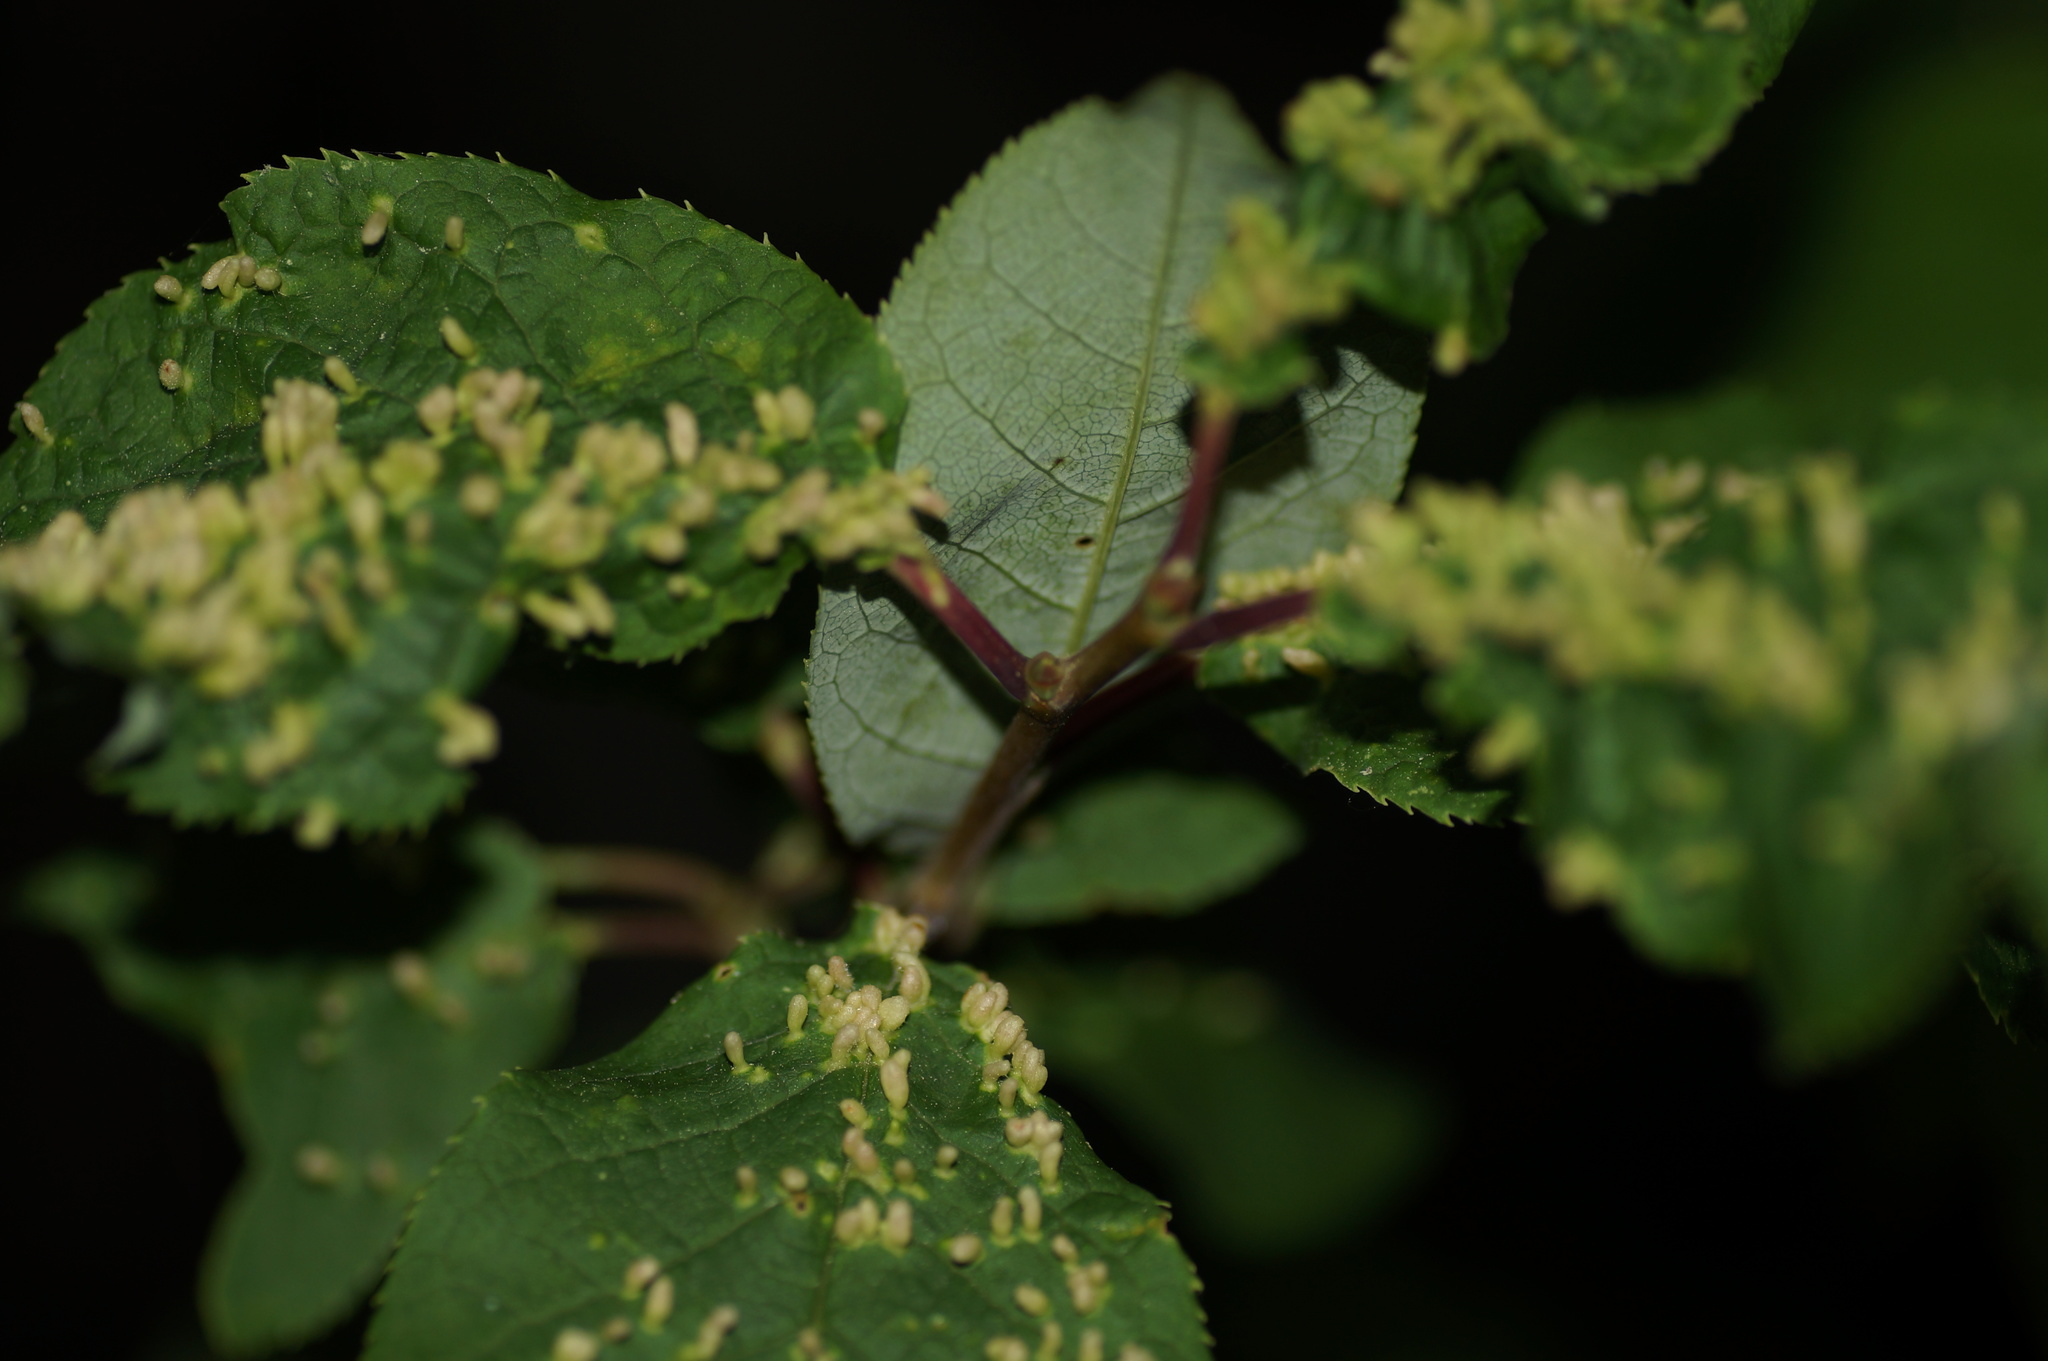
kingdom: Animalia
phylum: Arthropoda
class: Arachnida
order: Trombidiformes
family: Eriophyidae
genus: Phyllocoptes
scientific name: Phyllocoptes eupadi
